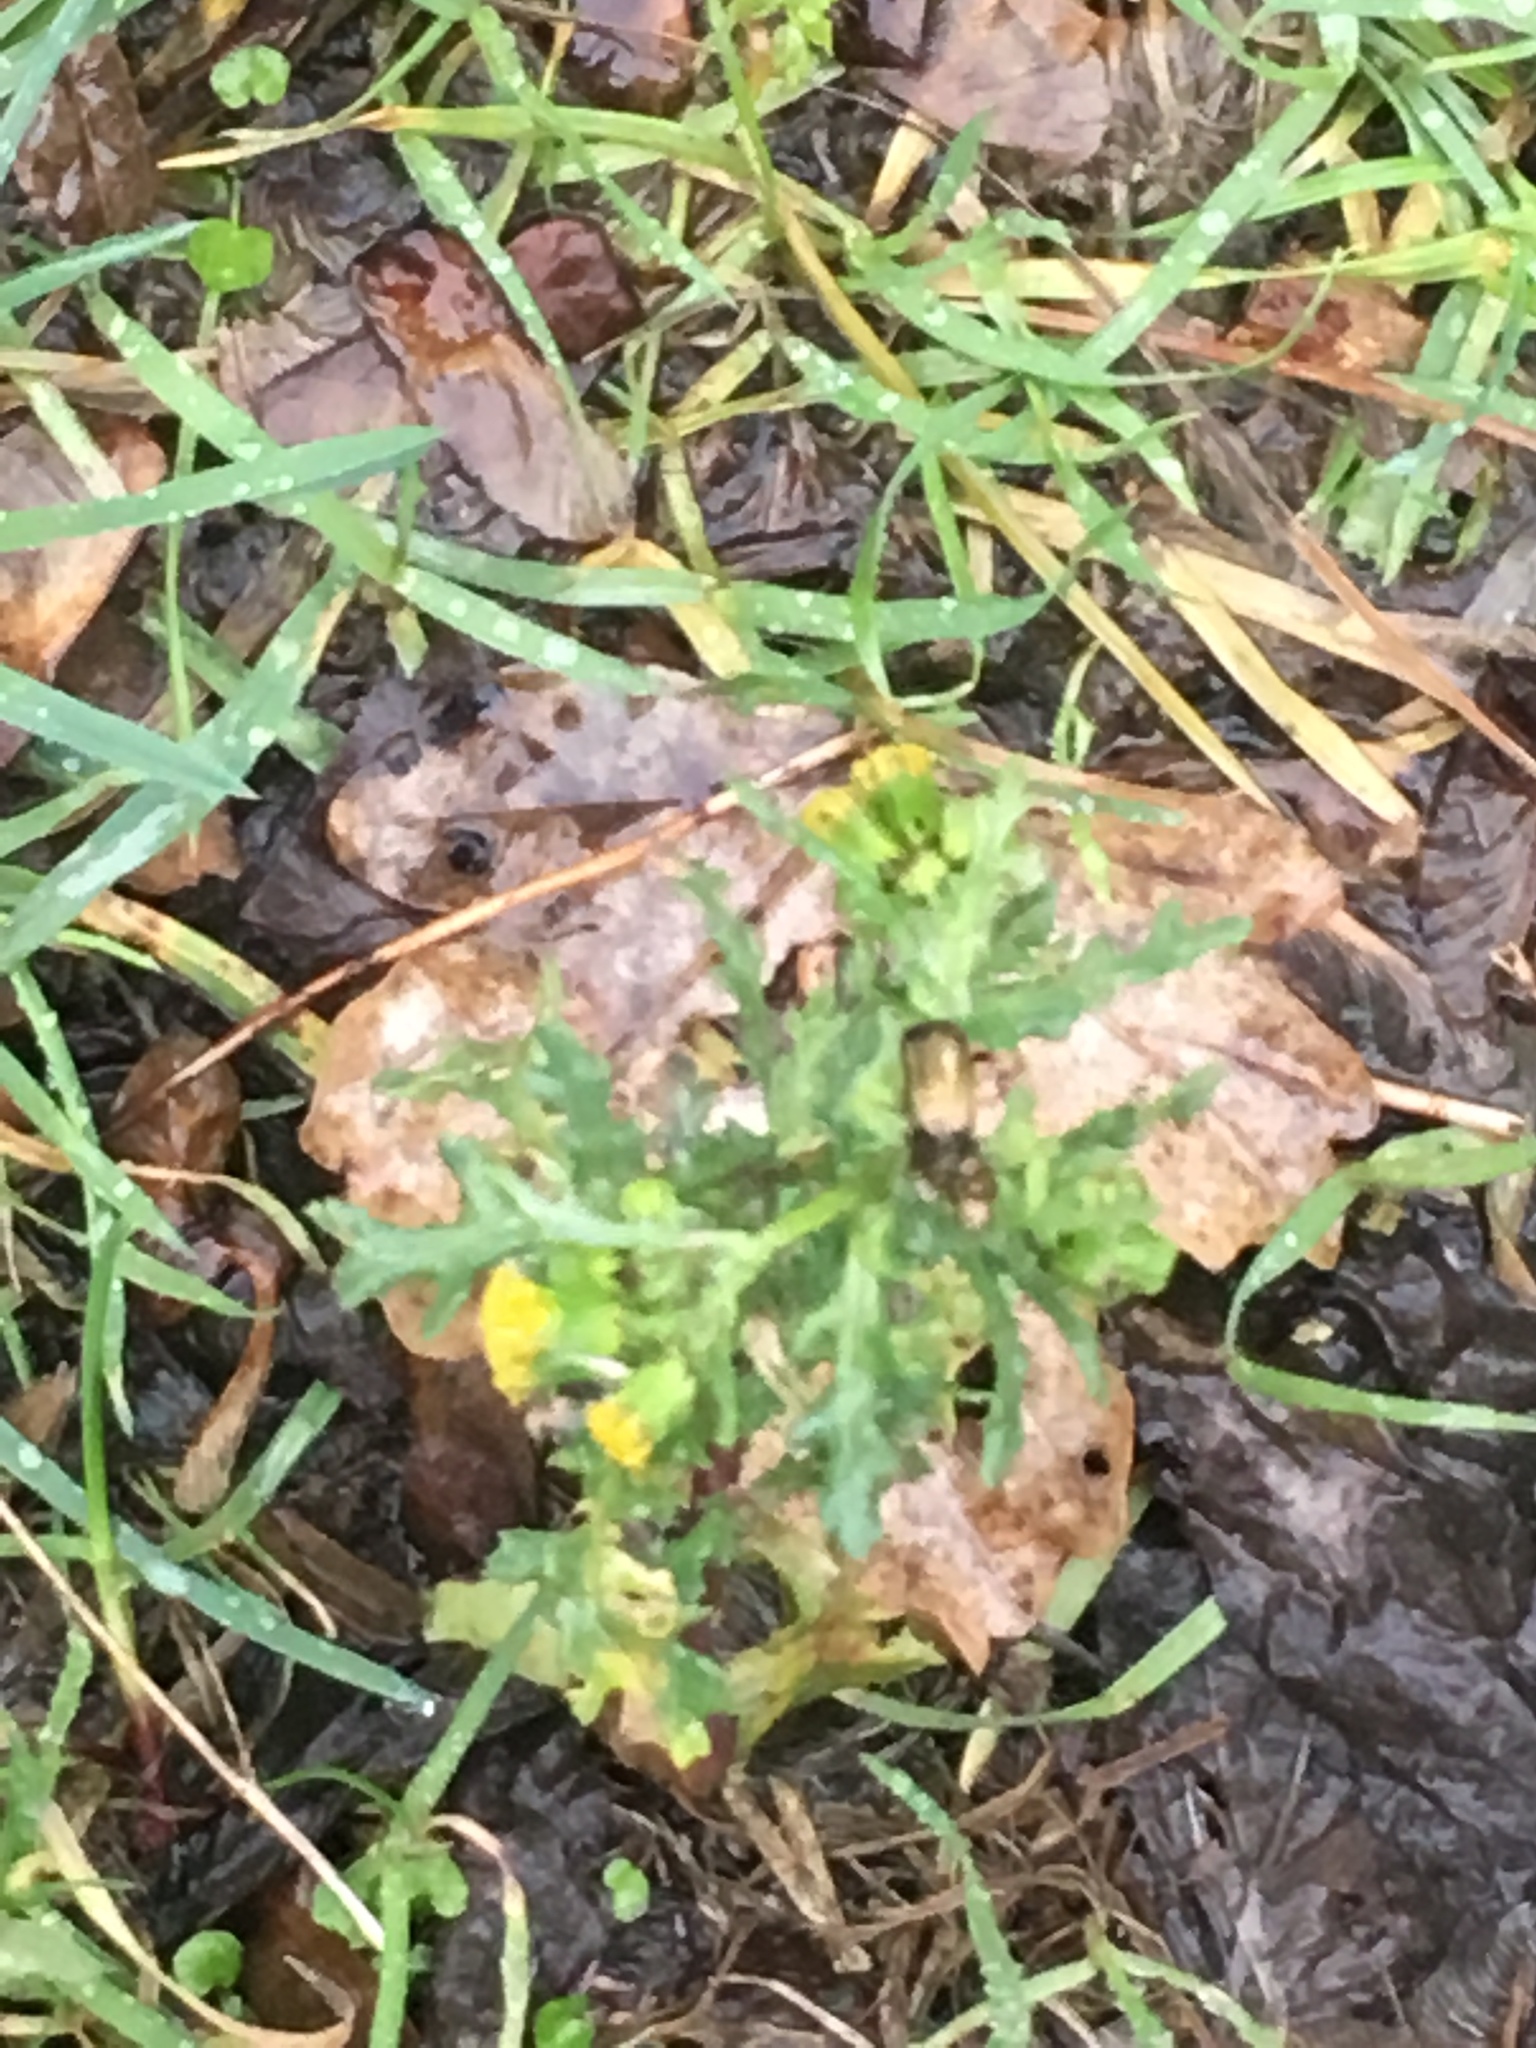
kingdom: Plantae
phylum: Tracheophyta
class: Magnoliopsida
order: Asterales
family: Asteraceae
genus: Senecio
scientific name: Senecio vulgaris
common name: Old-man-in-the-spring
